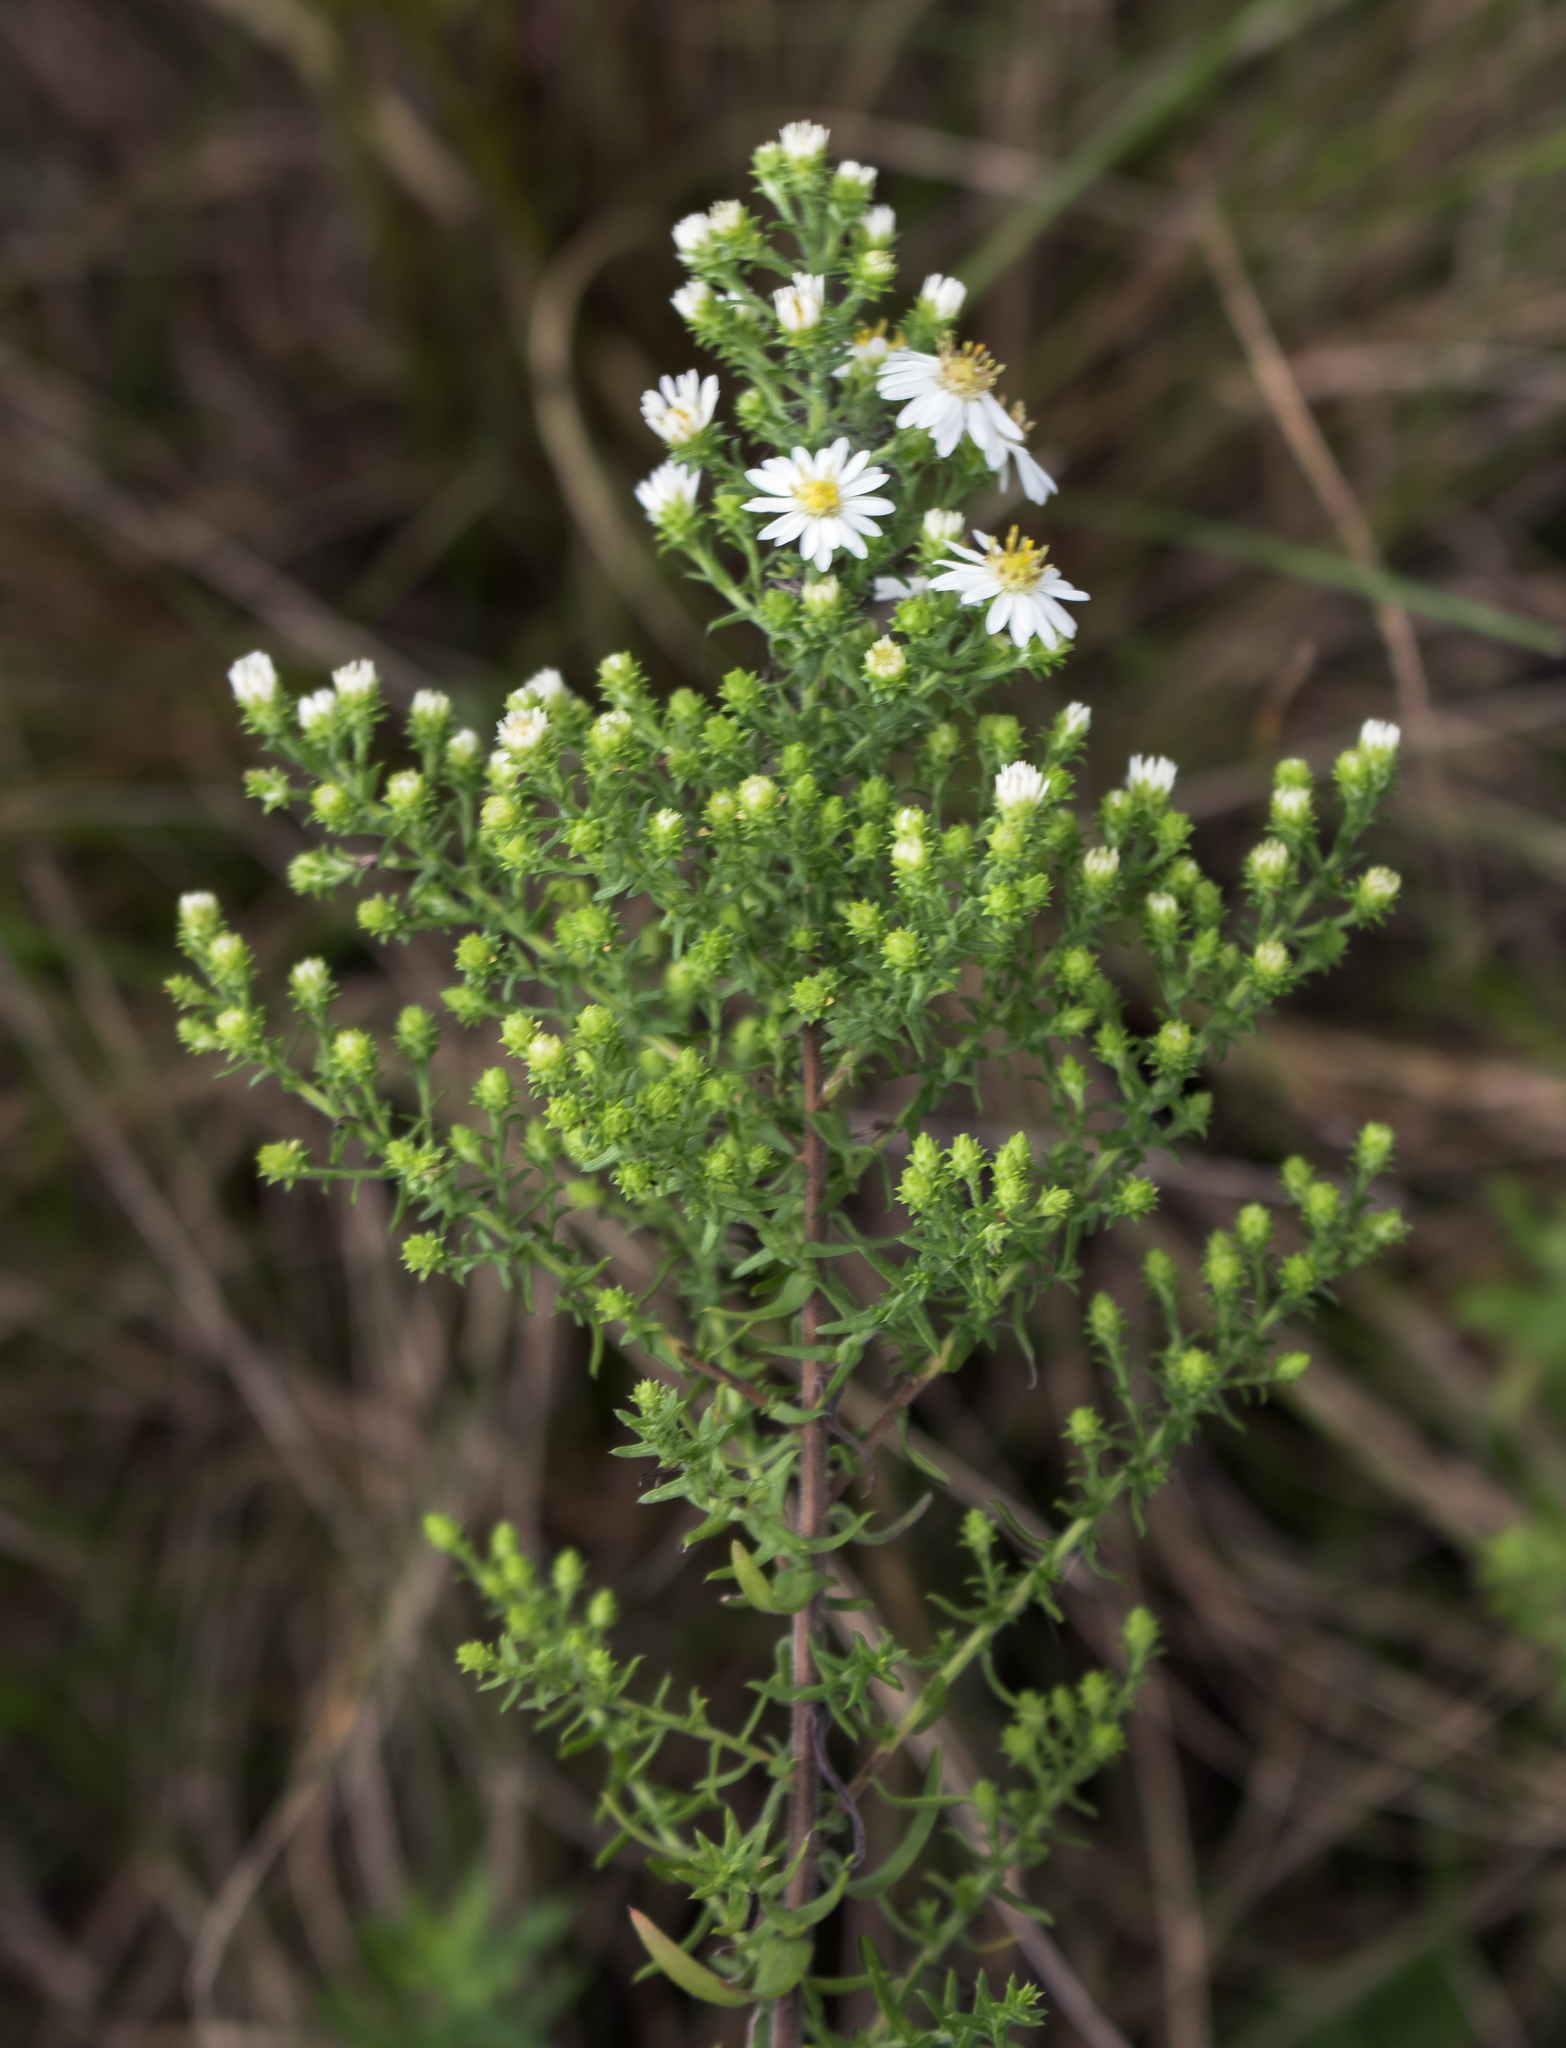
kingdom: Plantae
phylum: Tracheophyta
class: Magnoliopsida
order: Asterales
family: Asteraceae
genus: Symphyotrichum
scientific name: Symphyotrichum ericoides
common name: Heath aster
